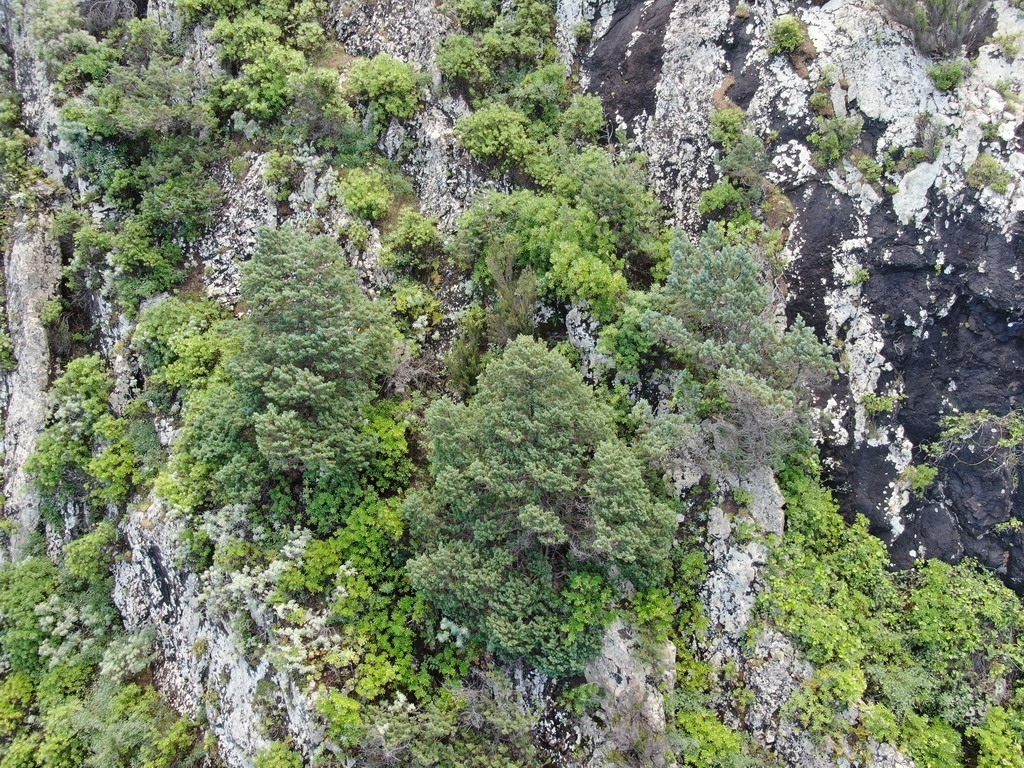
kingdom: Plantae
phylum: Tracheophyta
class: Pinopsida
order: Pinales
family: Cupressaceae
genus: Juniperus
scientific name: Juniperus canariensis
